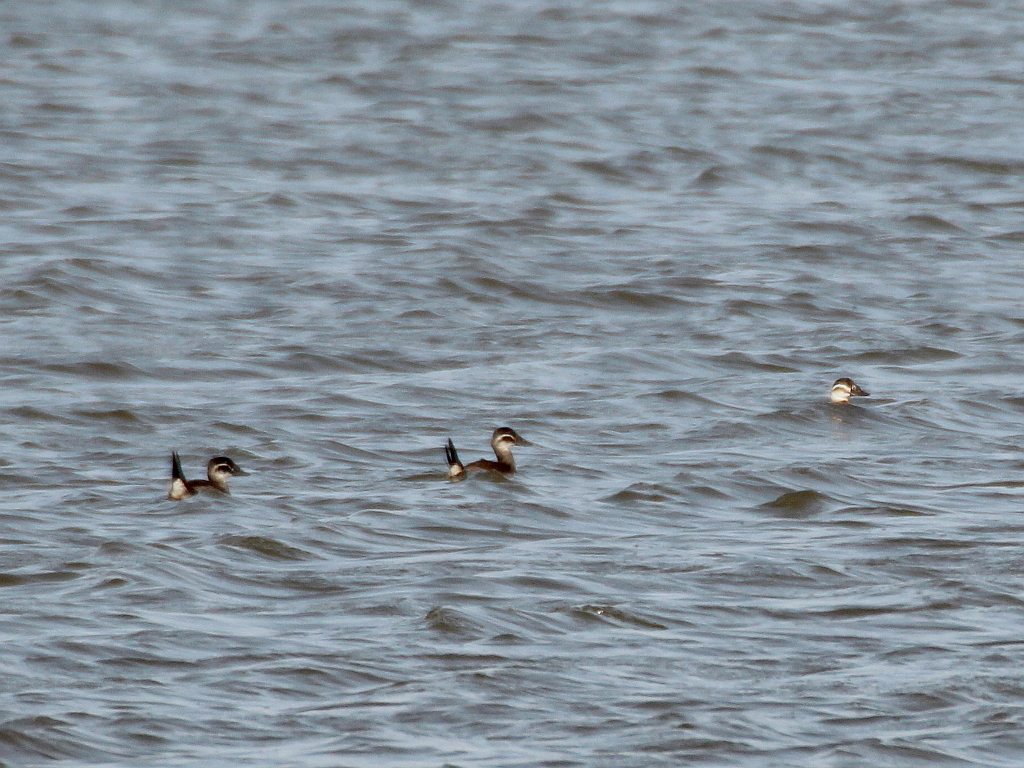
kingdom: Animalia
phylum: Chordata
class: Aves
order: Anseriformes
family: Anatidae
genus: Oxyura
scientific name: Oxyura leucocephala
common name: White-headed duck
